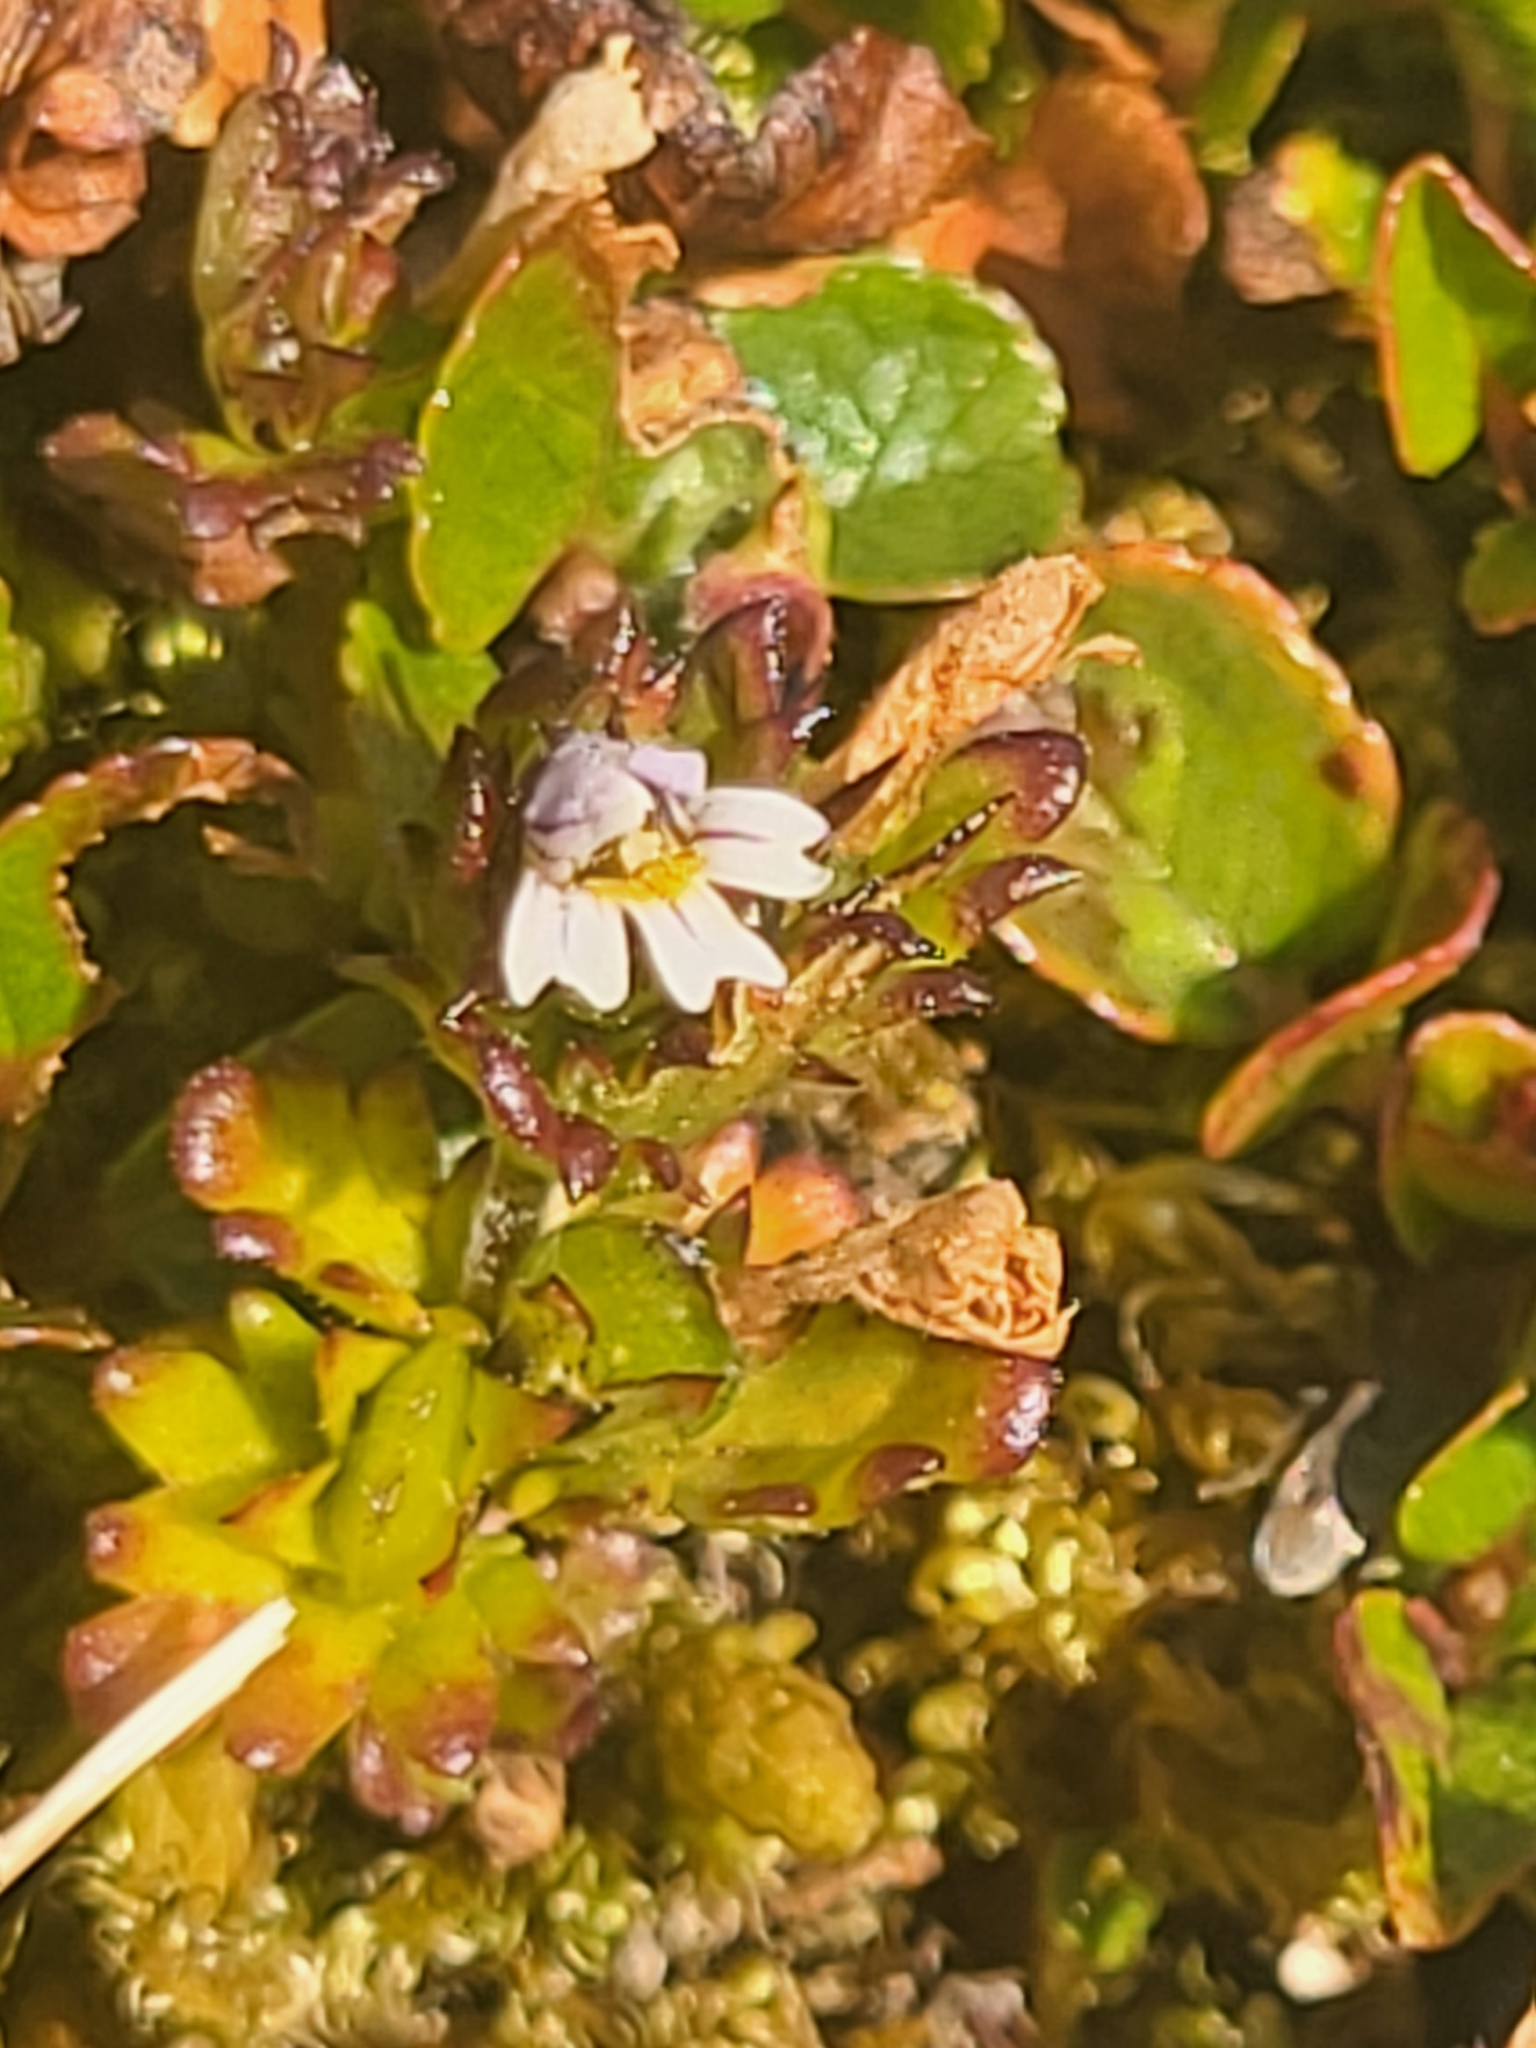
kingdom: Plantae
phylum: Tracheophyta
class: Magnoliopsida
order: Lamiales
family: Orobanchaceae
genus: Euphrasia
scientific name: Euphrasia frigida
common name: An eyebright
